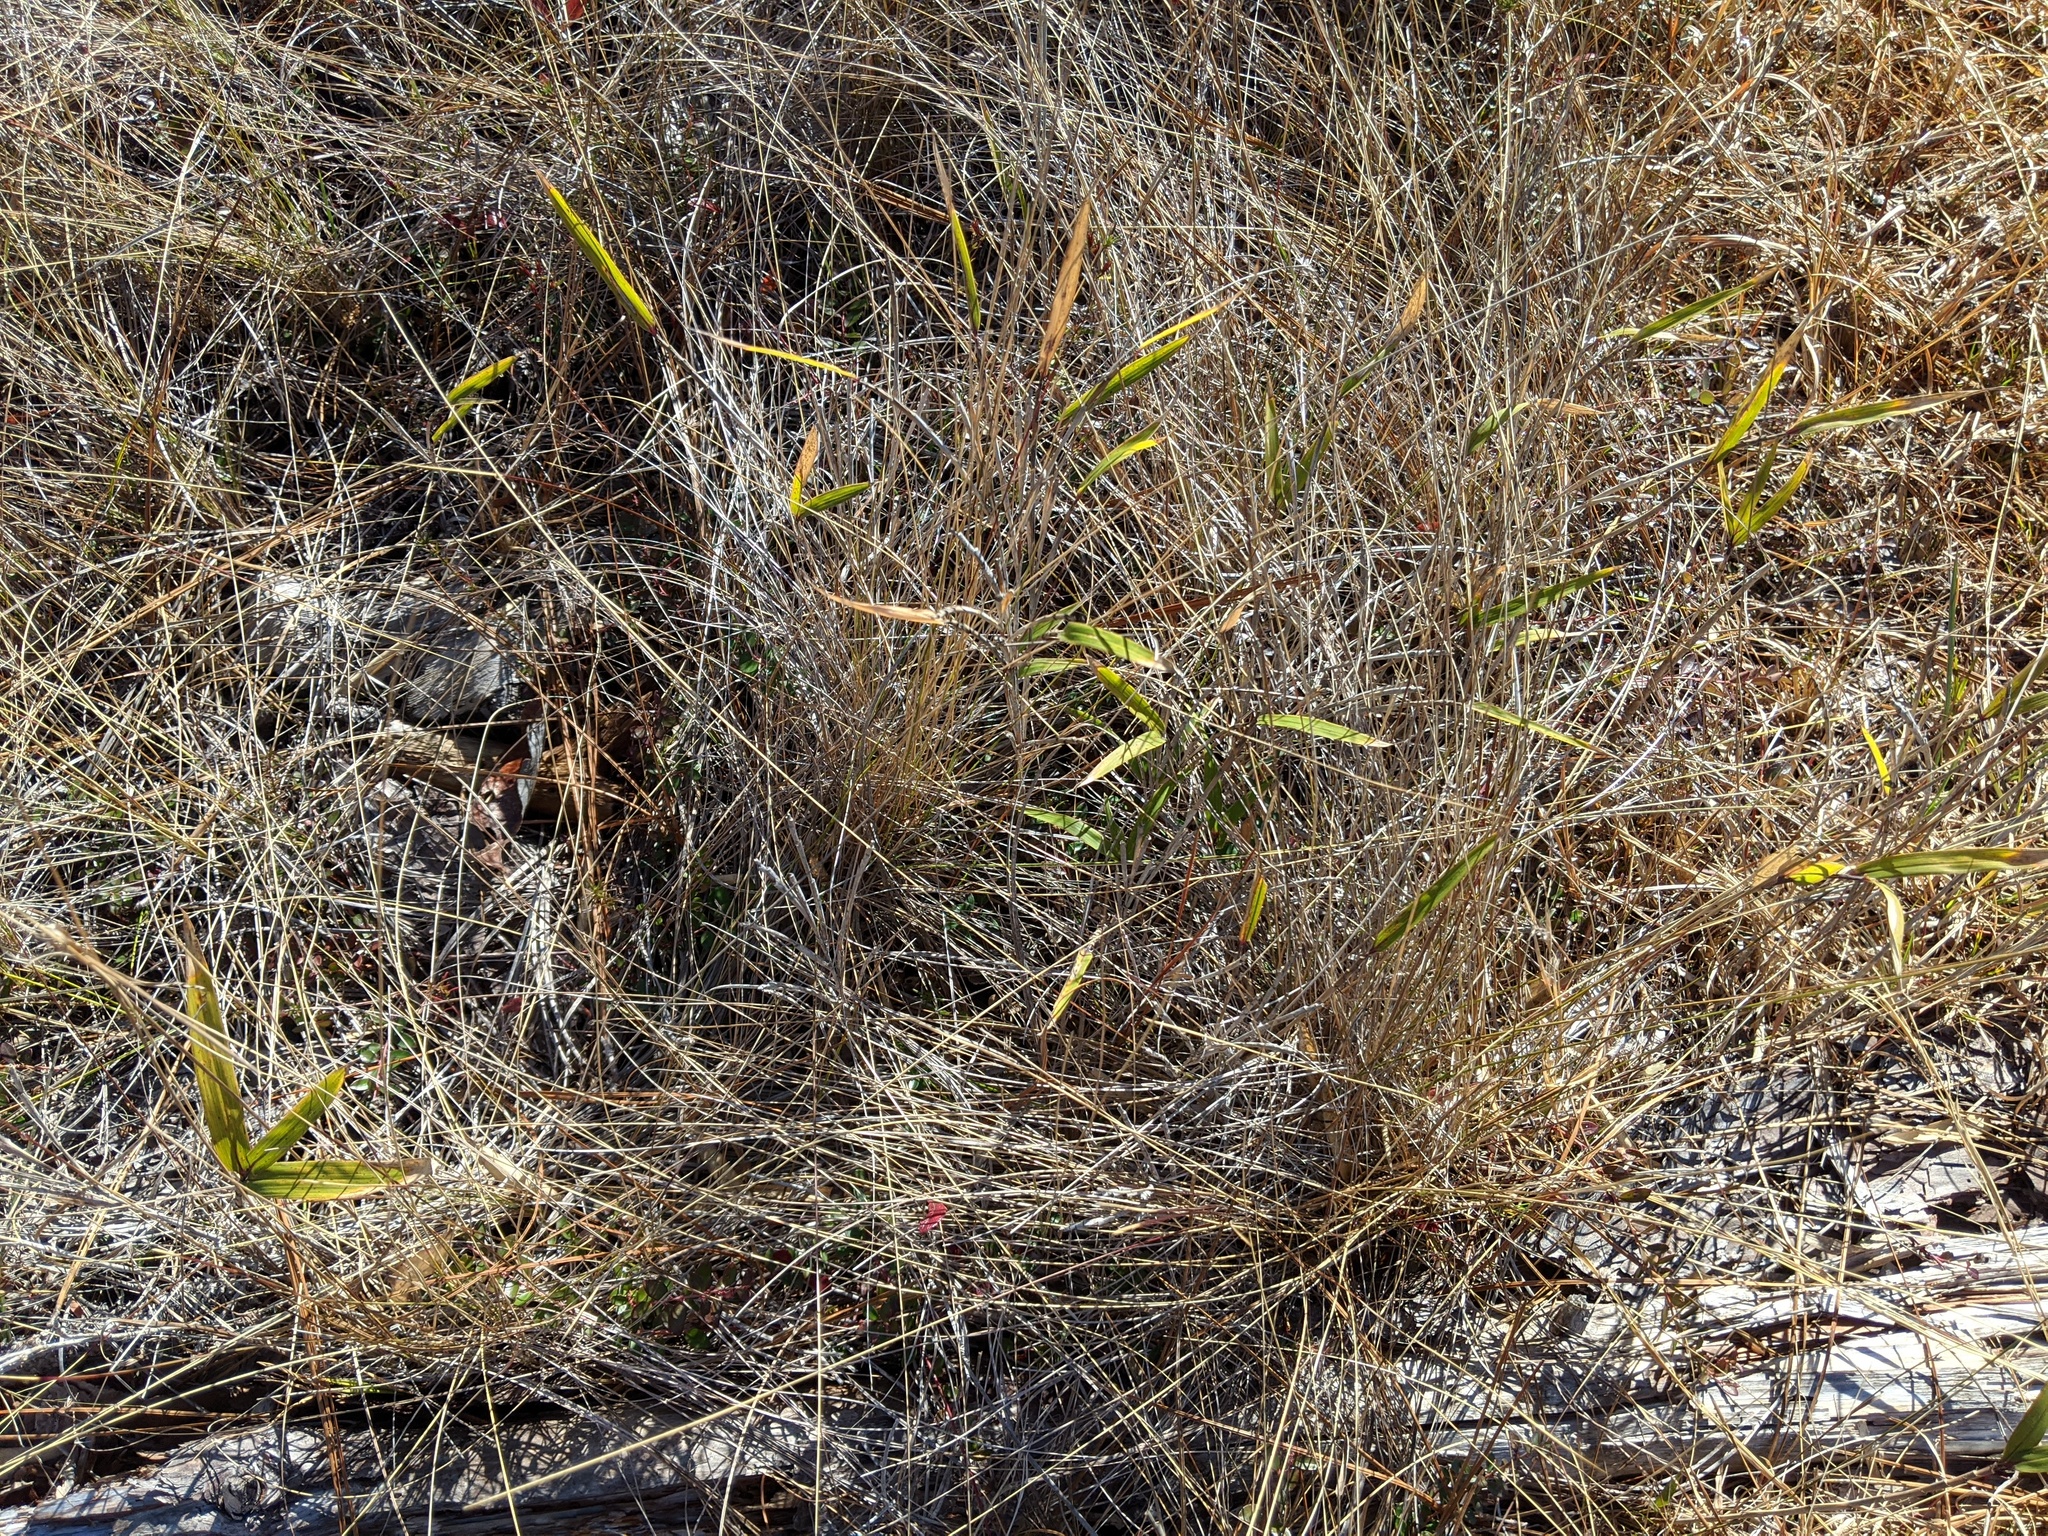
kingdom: Plantae
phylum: Tracheophyta
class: Liliopsida
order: Poales
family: Poaceae
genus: Arundinaria
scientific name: Arundinaria tecta
